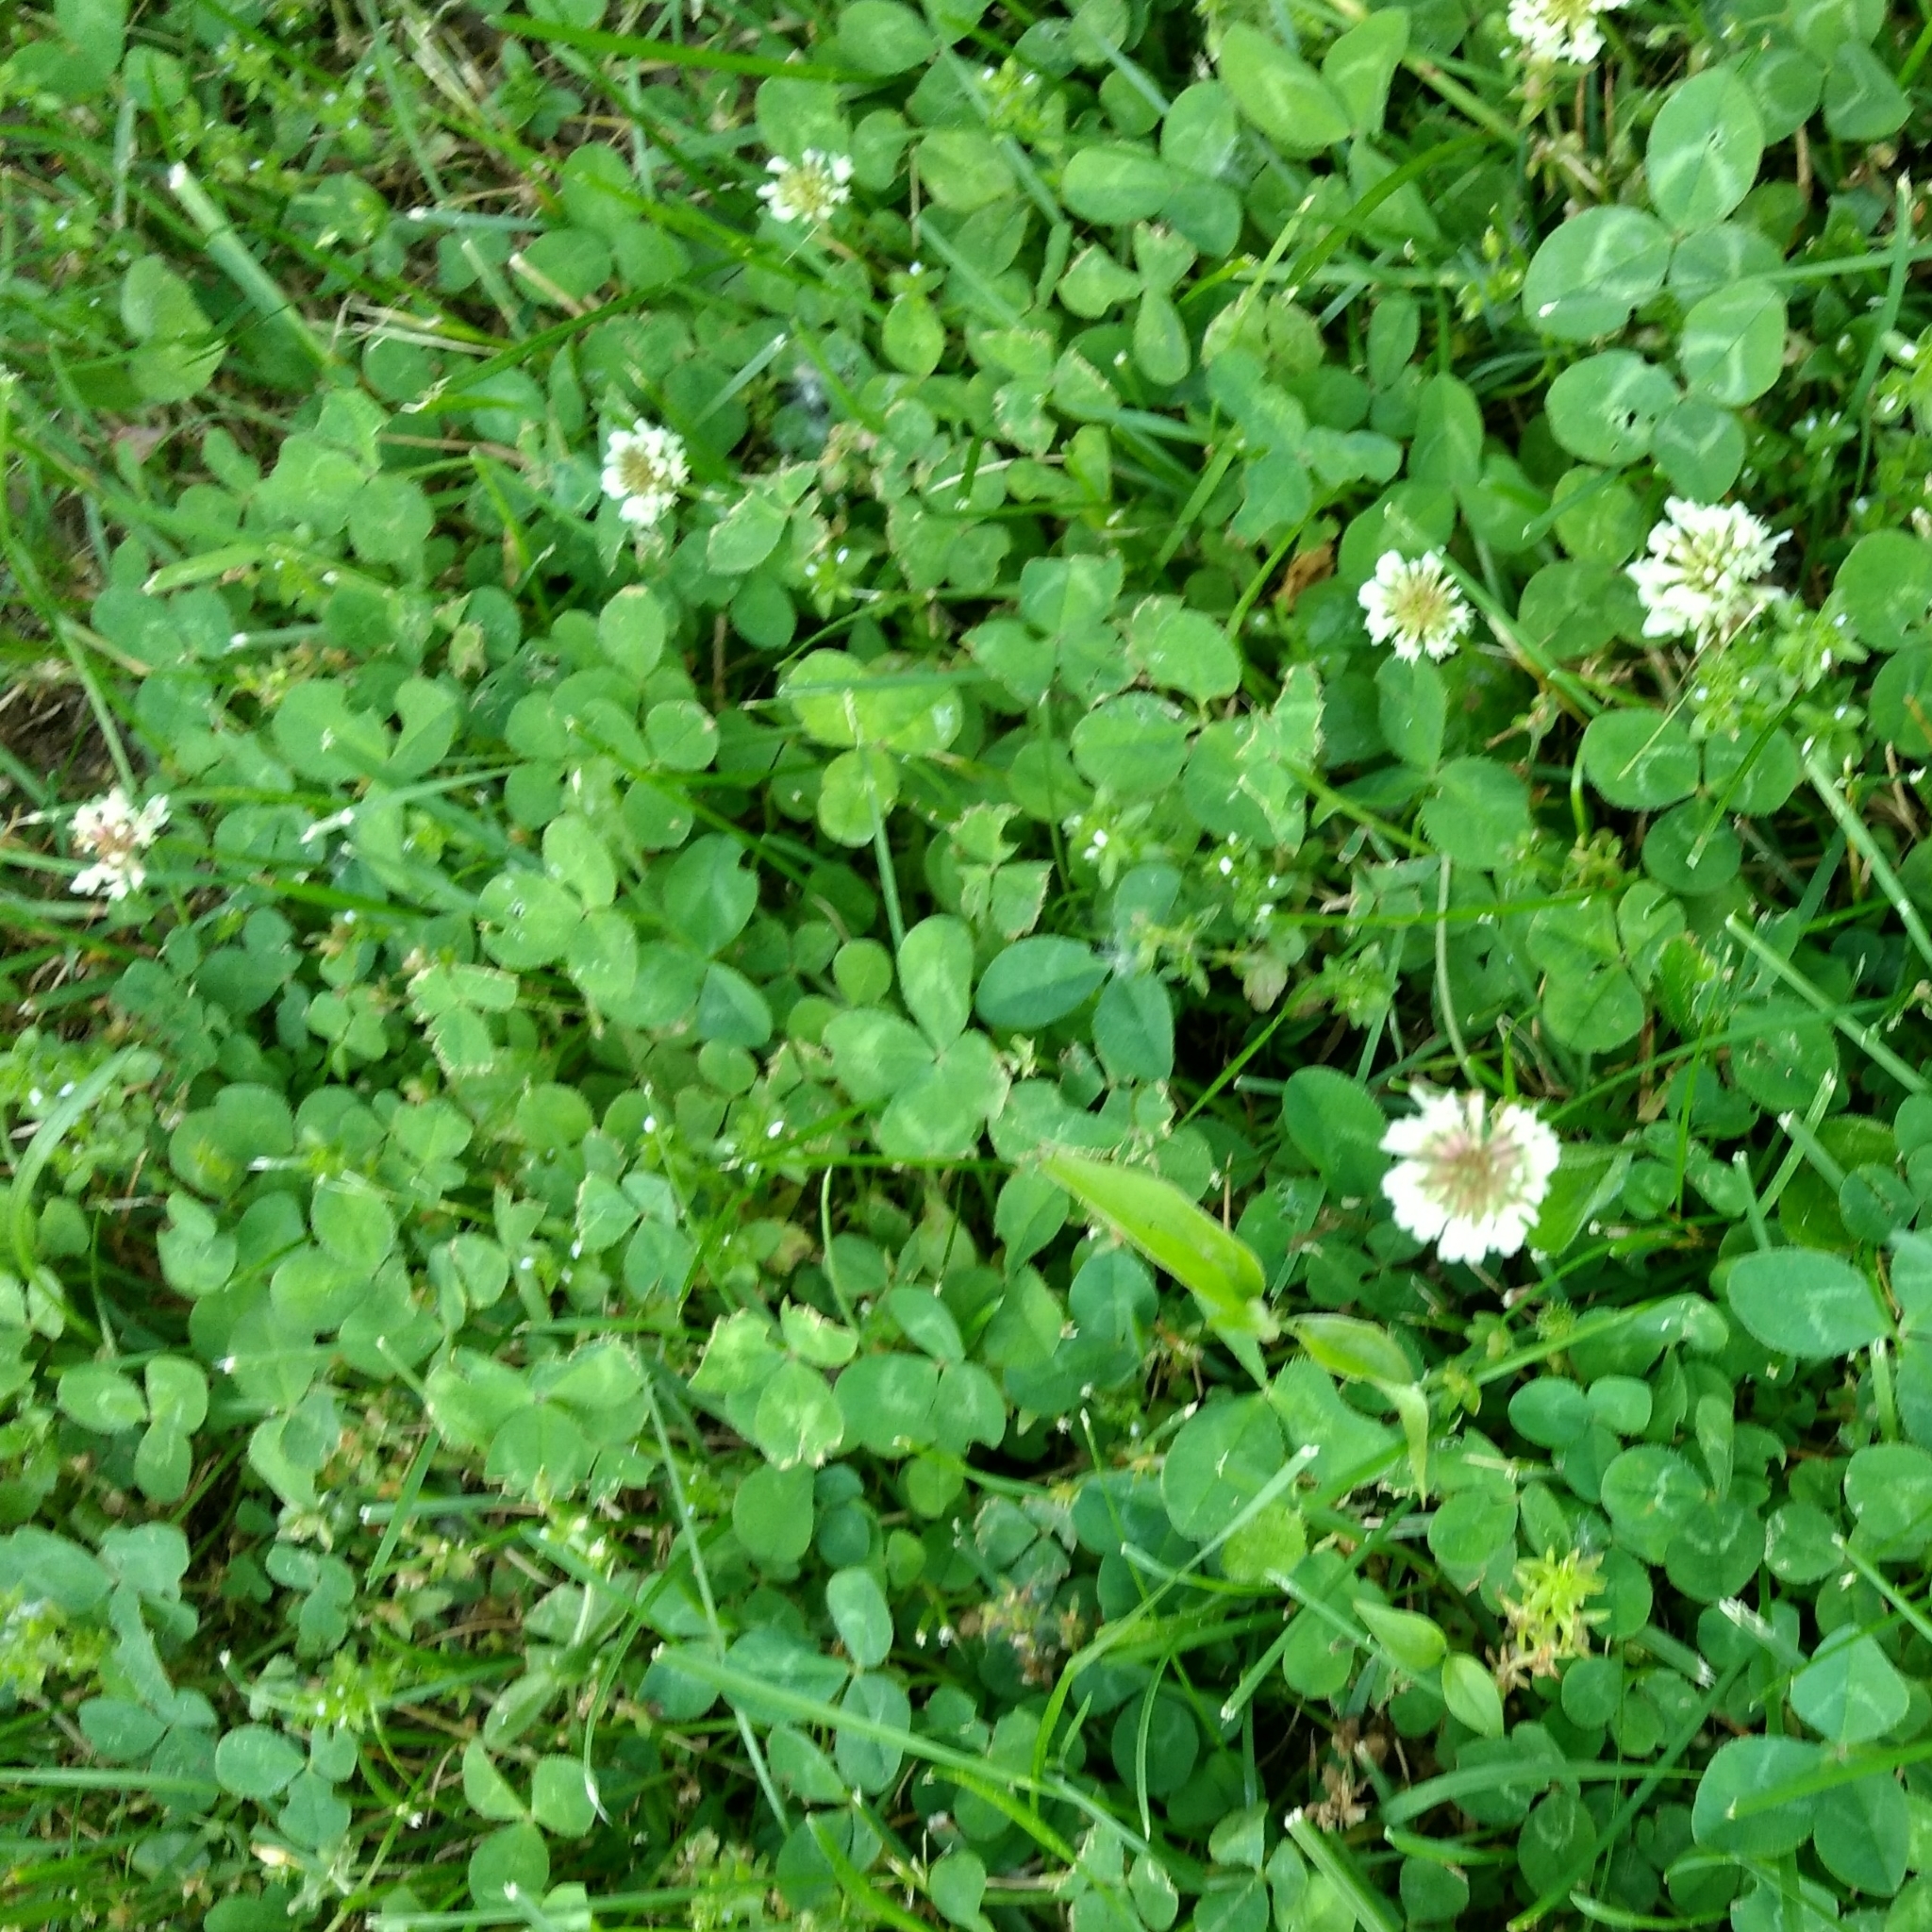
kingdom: Plantae
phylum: Tracheophyta
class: Magnoliopsida
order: Fabales
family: Fabaceae
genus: Trifolium
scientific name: Trifolium repens
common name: White clover
